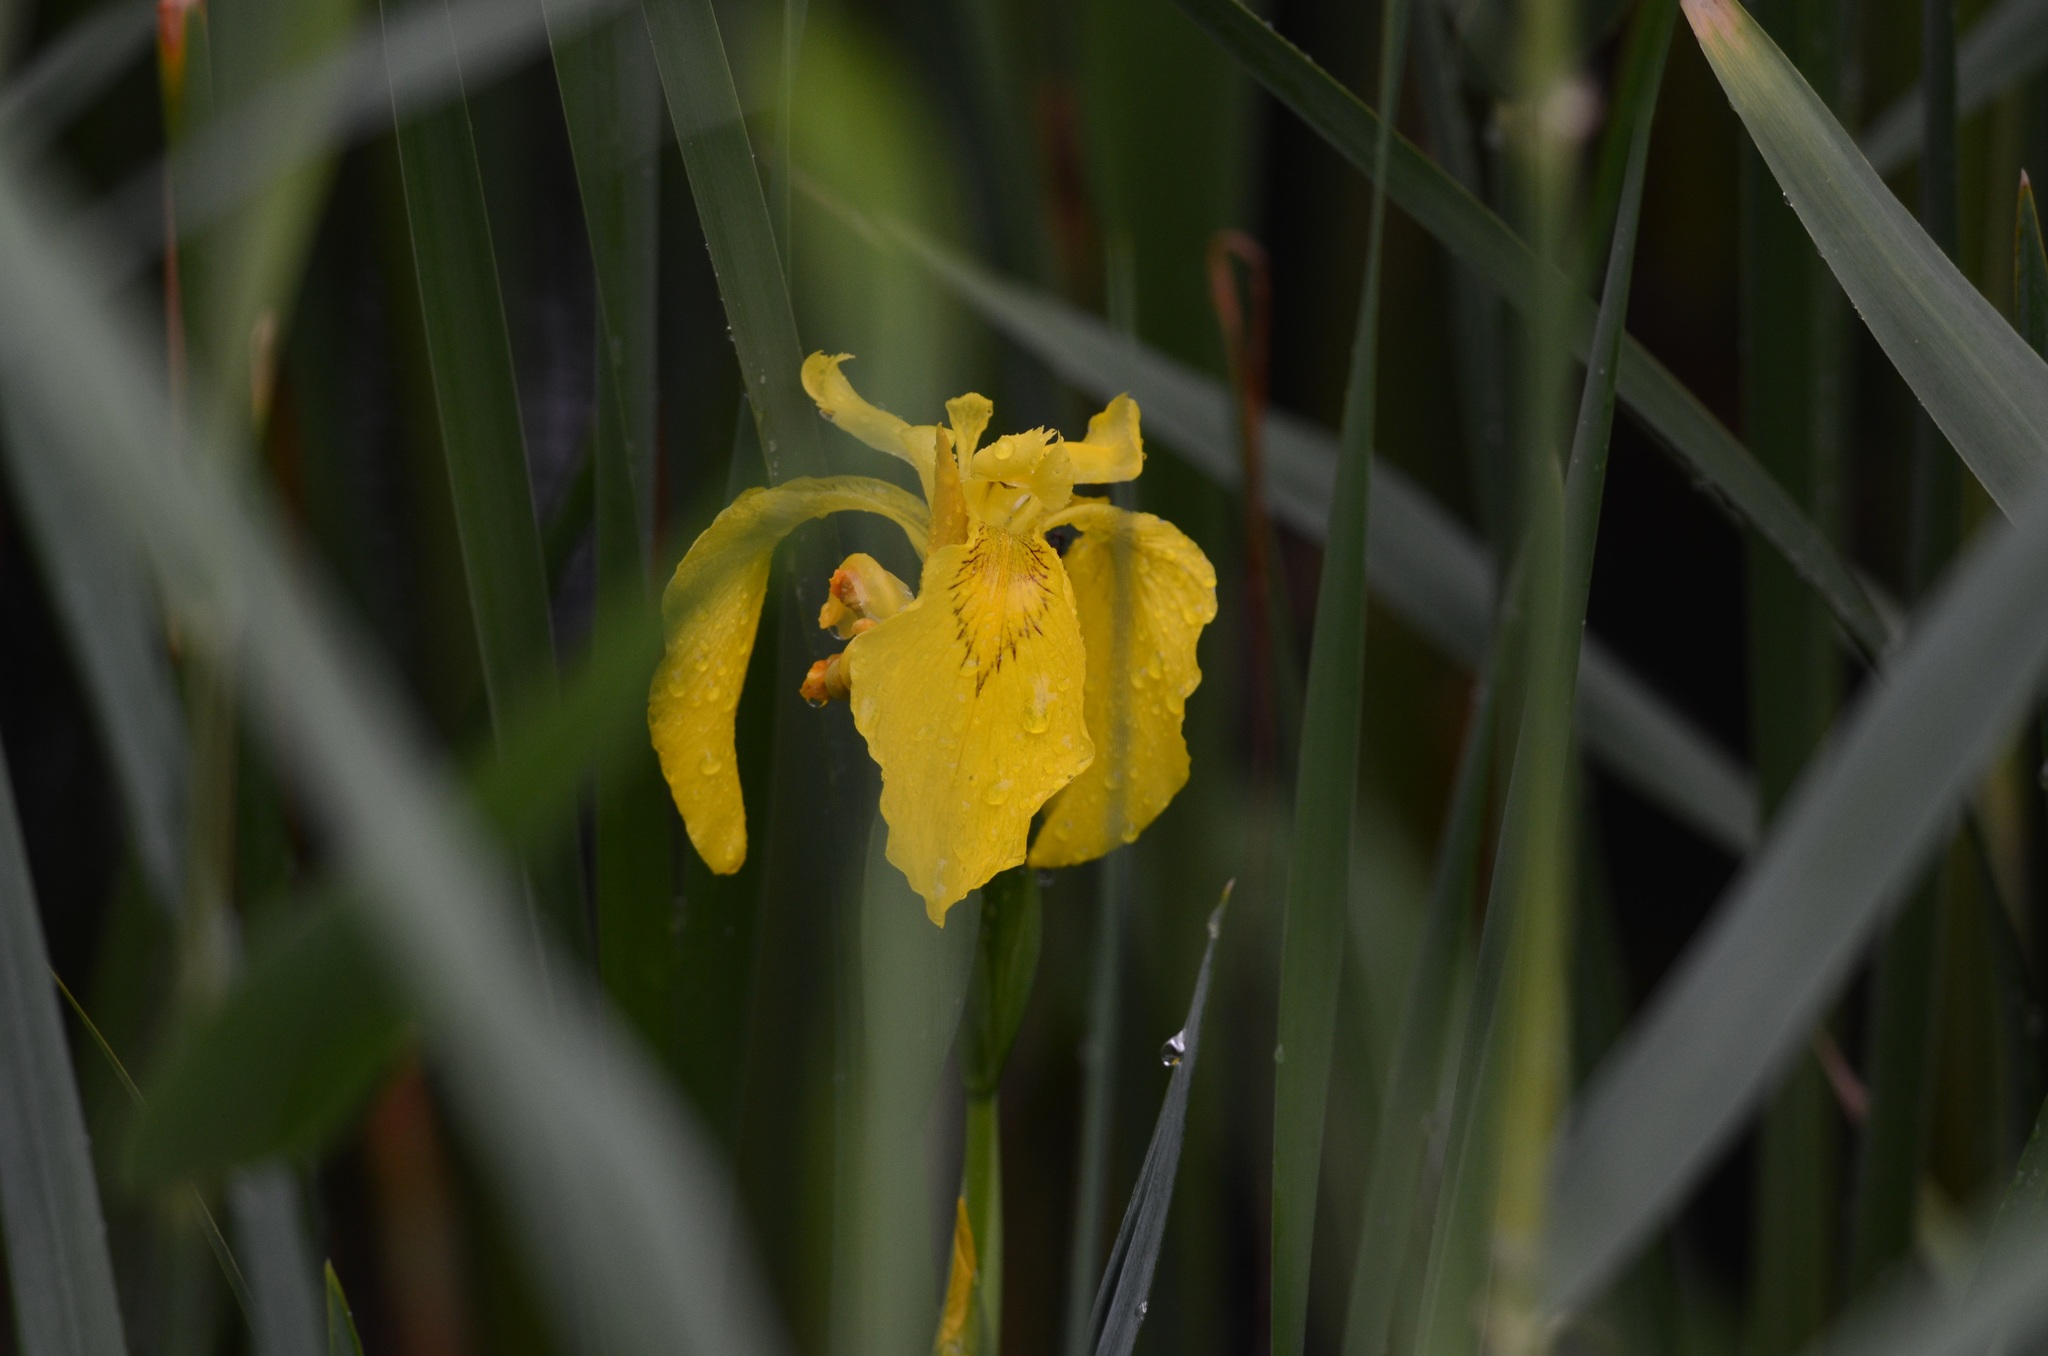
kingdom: Plantae
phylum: Tracheophyta
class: Liliopsida
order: Asparagales
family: Iridaceae
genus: Iris
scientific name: Iris pseudacorus
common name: Yellow flag
